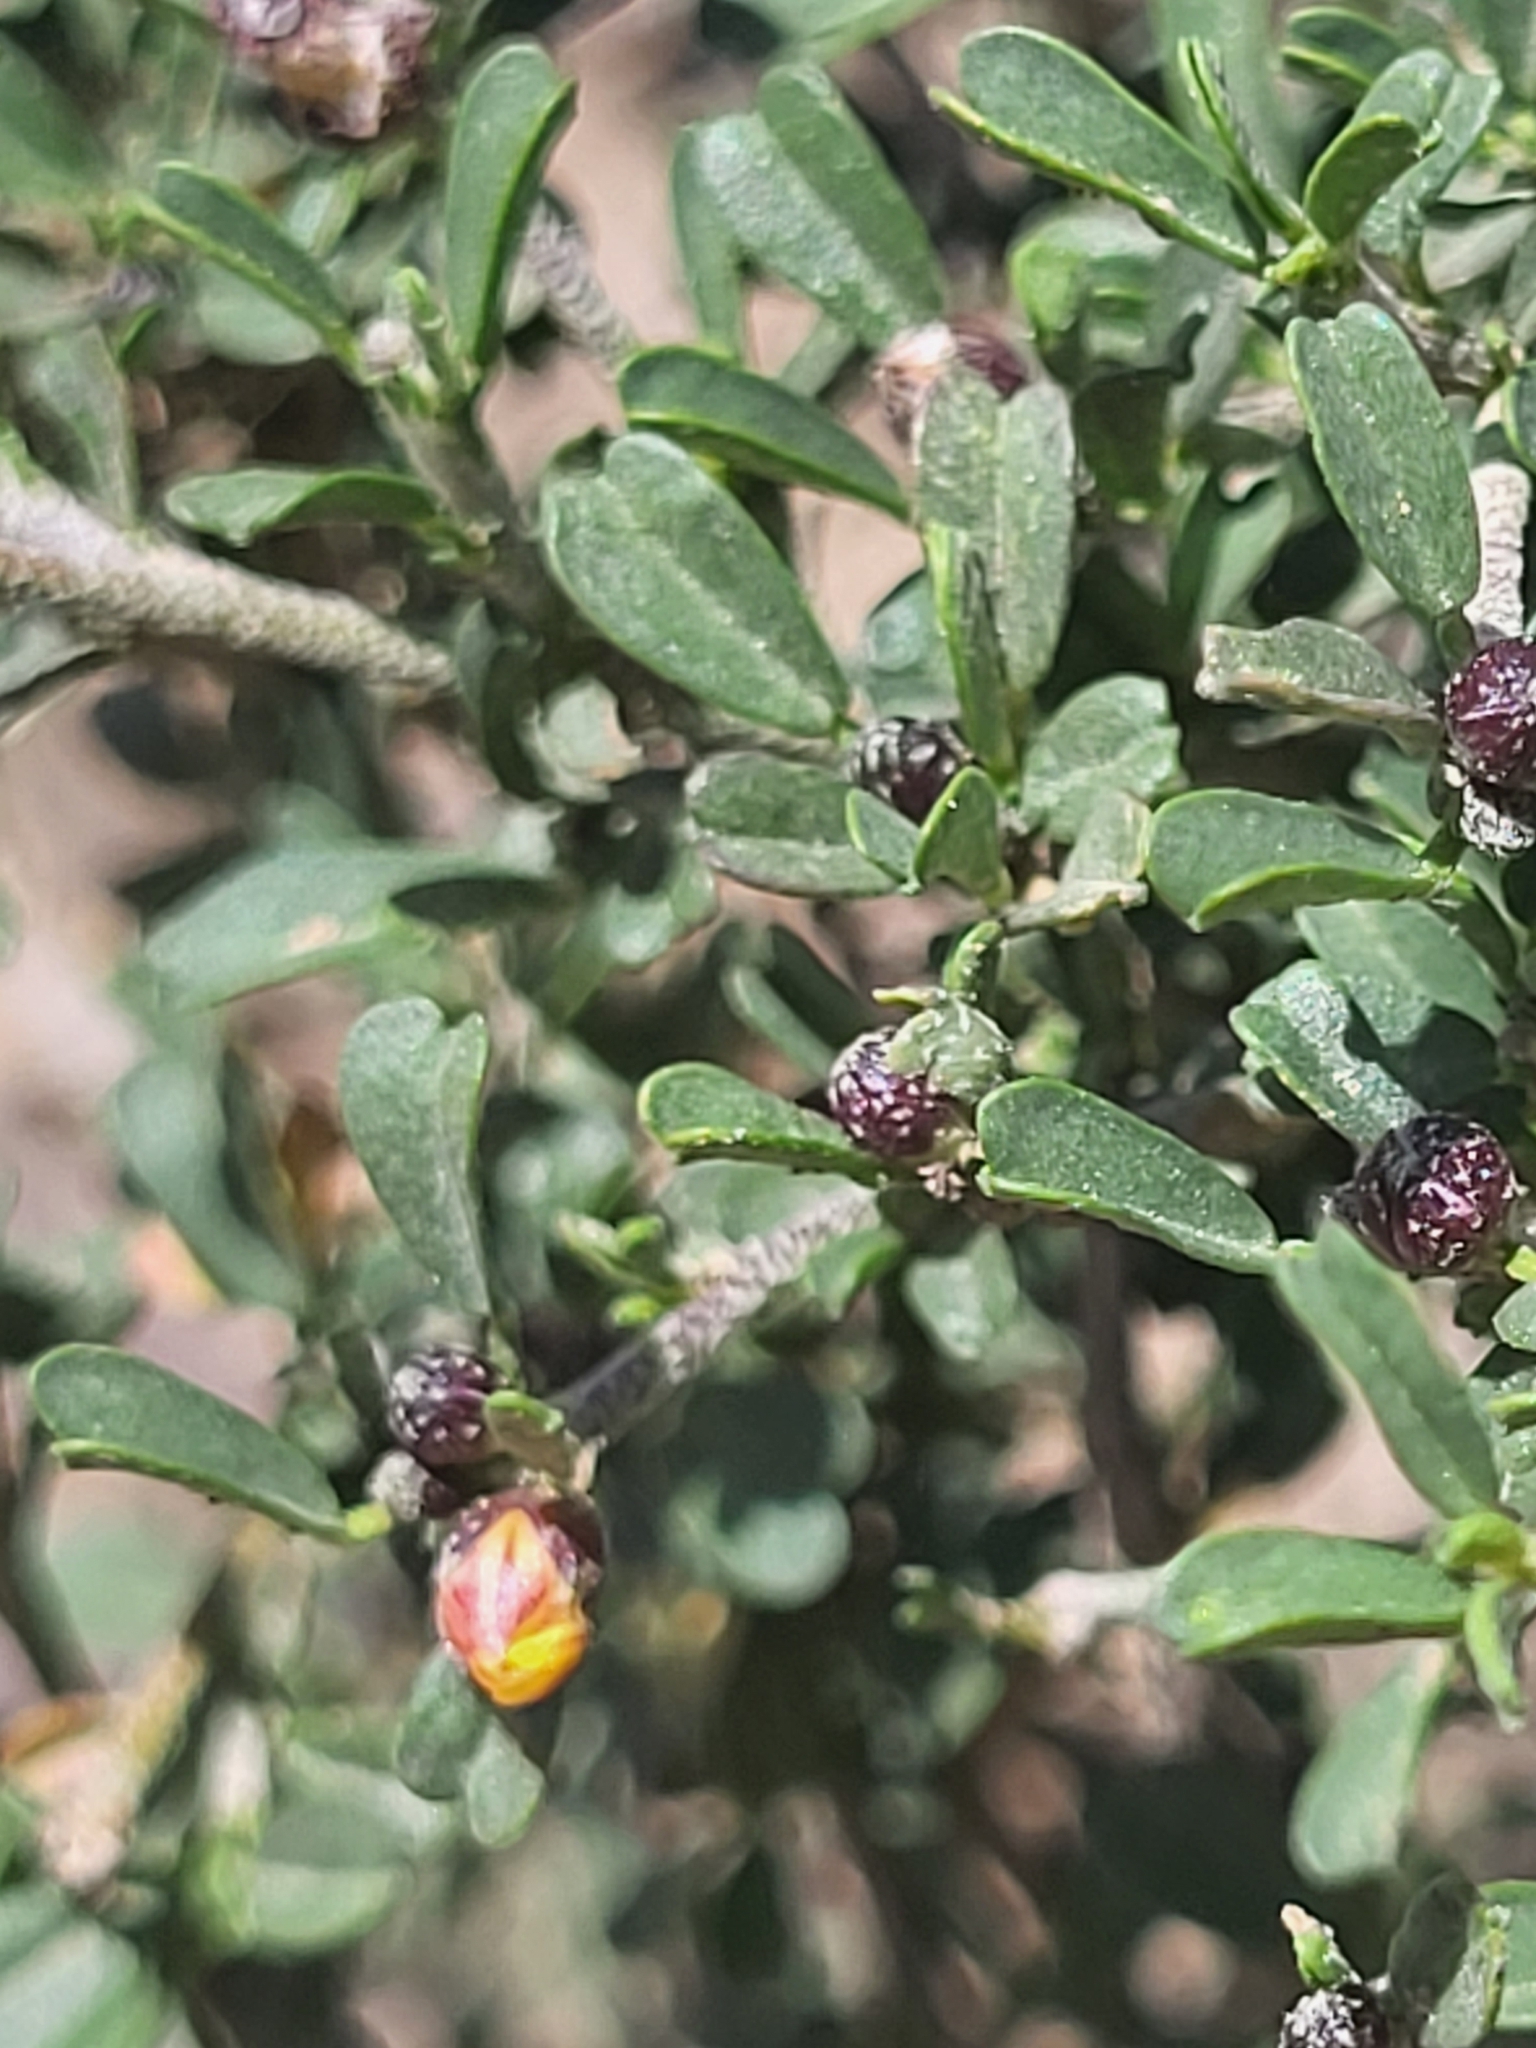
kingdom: Plantae
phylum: Tracheophyta
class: Magnoliopsida
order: Malvales
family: Malvaceae
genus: Sida
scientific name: Sida tenuicarpa
